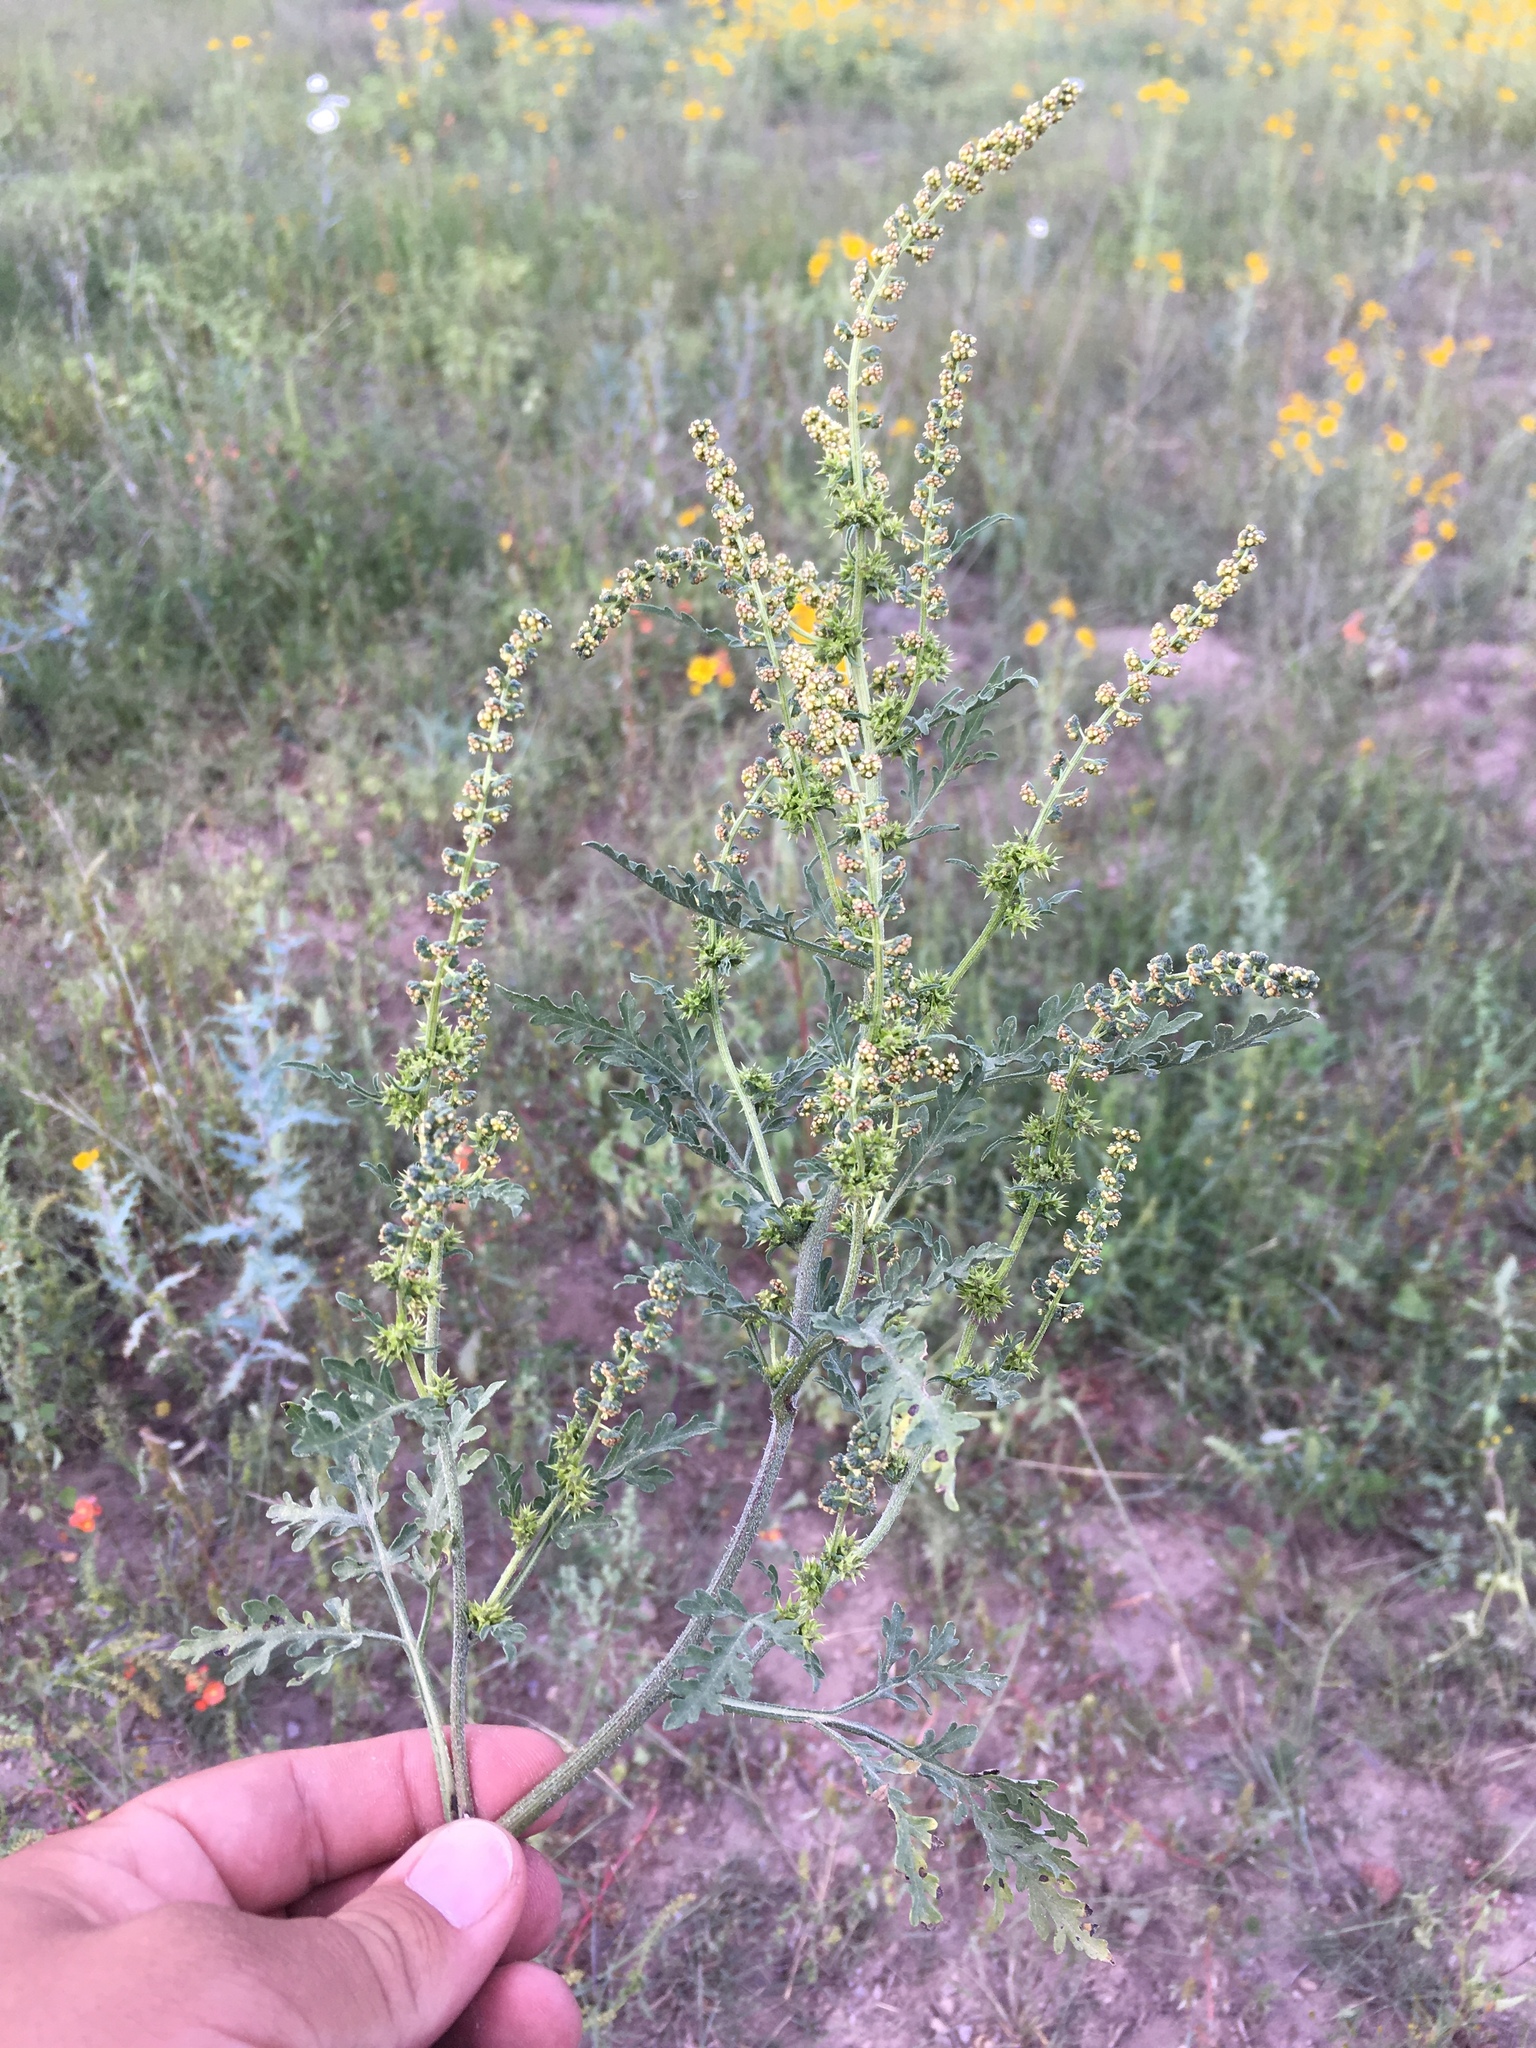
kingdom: Plantae
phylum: Tracheophyta
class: Magnoliopsida
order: Asterales
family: Asteraceae
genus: Ambrosia
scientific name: Ambrosia acanthicarpa
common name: Hooker's bur ragweed
